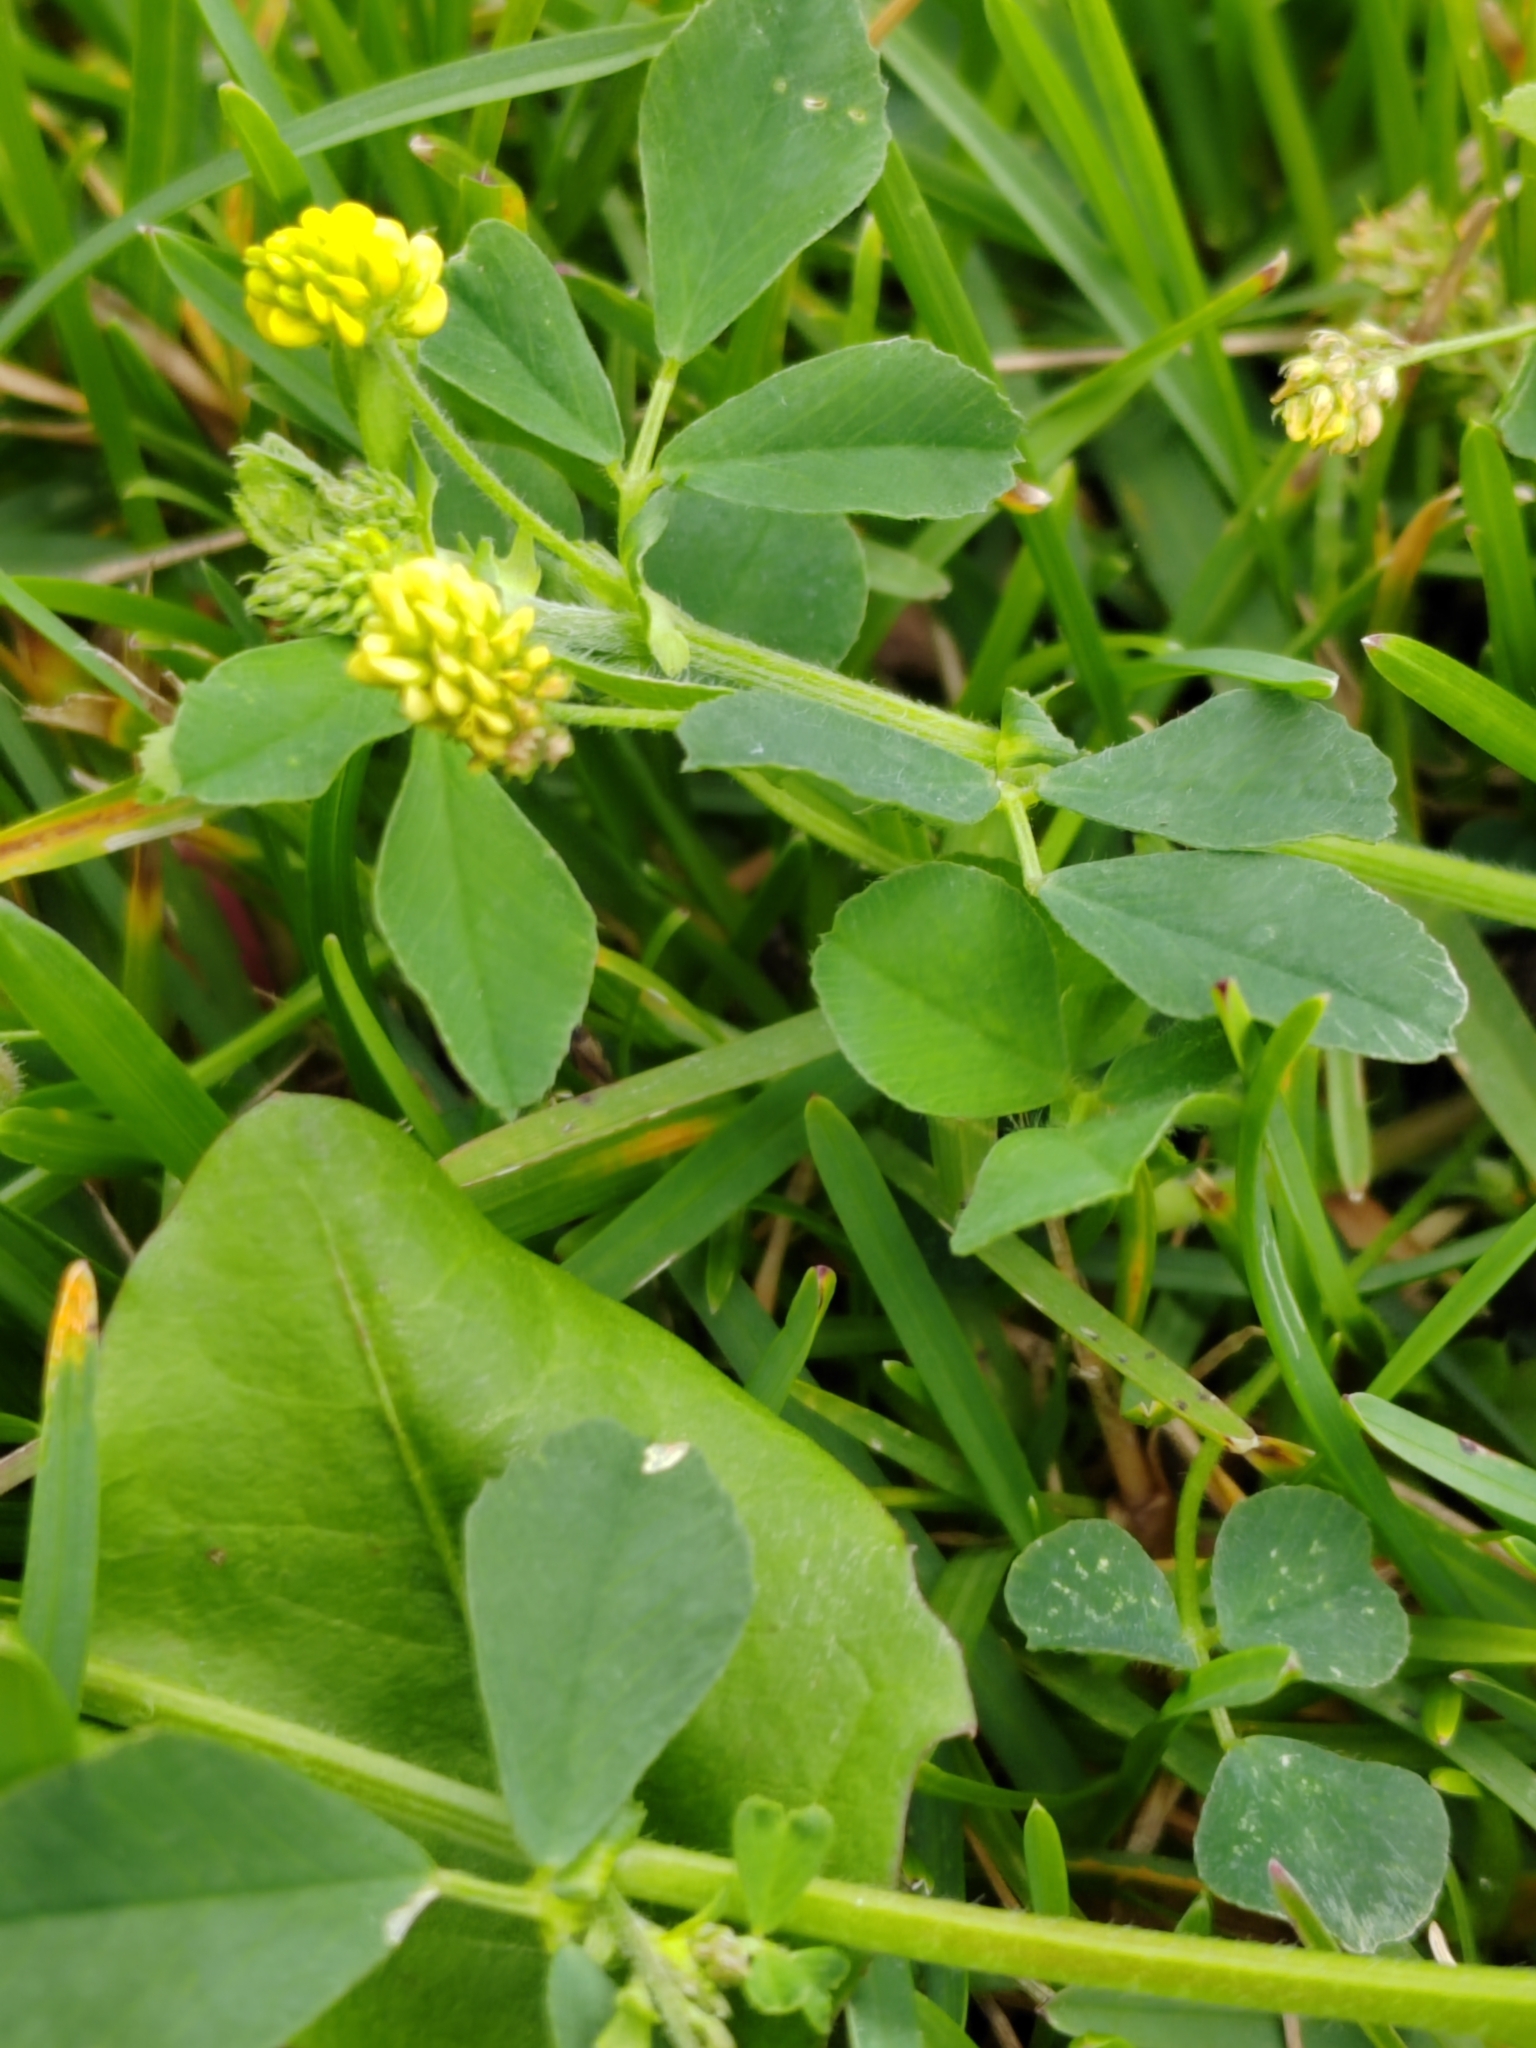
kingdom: Plantae
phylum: Tracheophyta
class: Magnoliopsida
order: Fabales
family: Fabaceae
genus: Medicago
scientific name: Medicago lupulina
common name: Black medick
